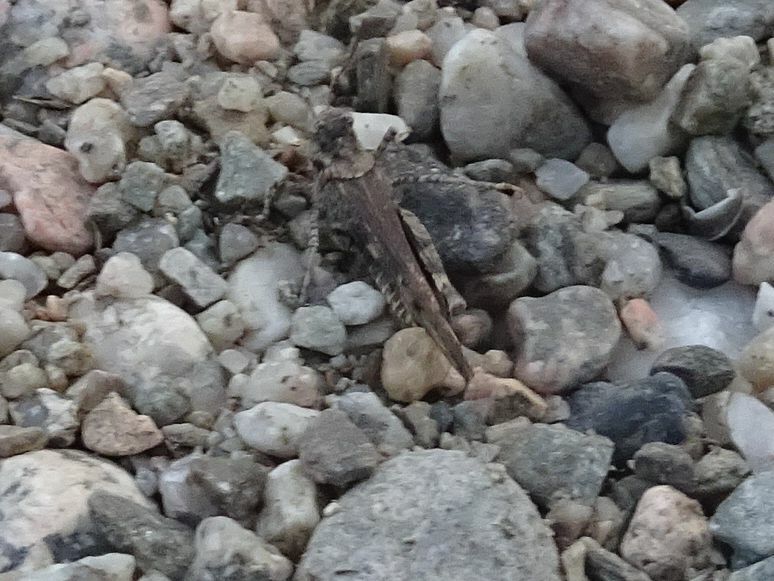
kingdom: Animalia
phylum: Arthropoda
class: Insecta
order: Orthoptera
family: Acrididae
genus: Acrotylus
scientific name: Acrotylus insubricus
